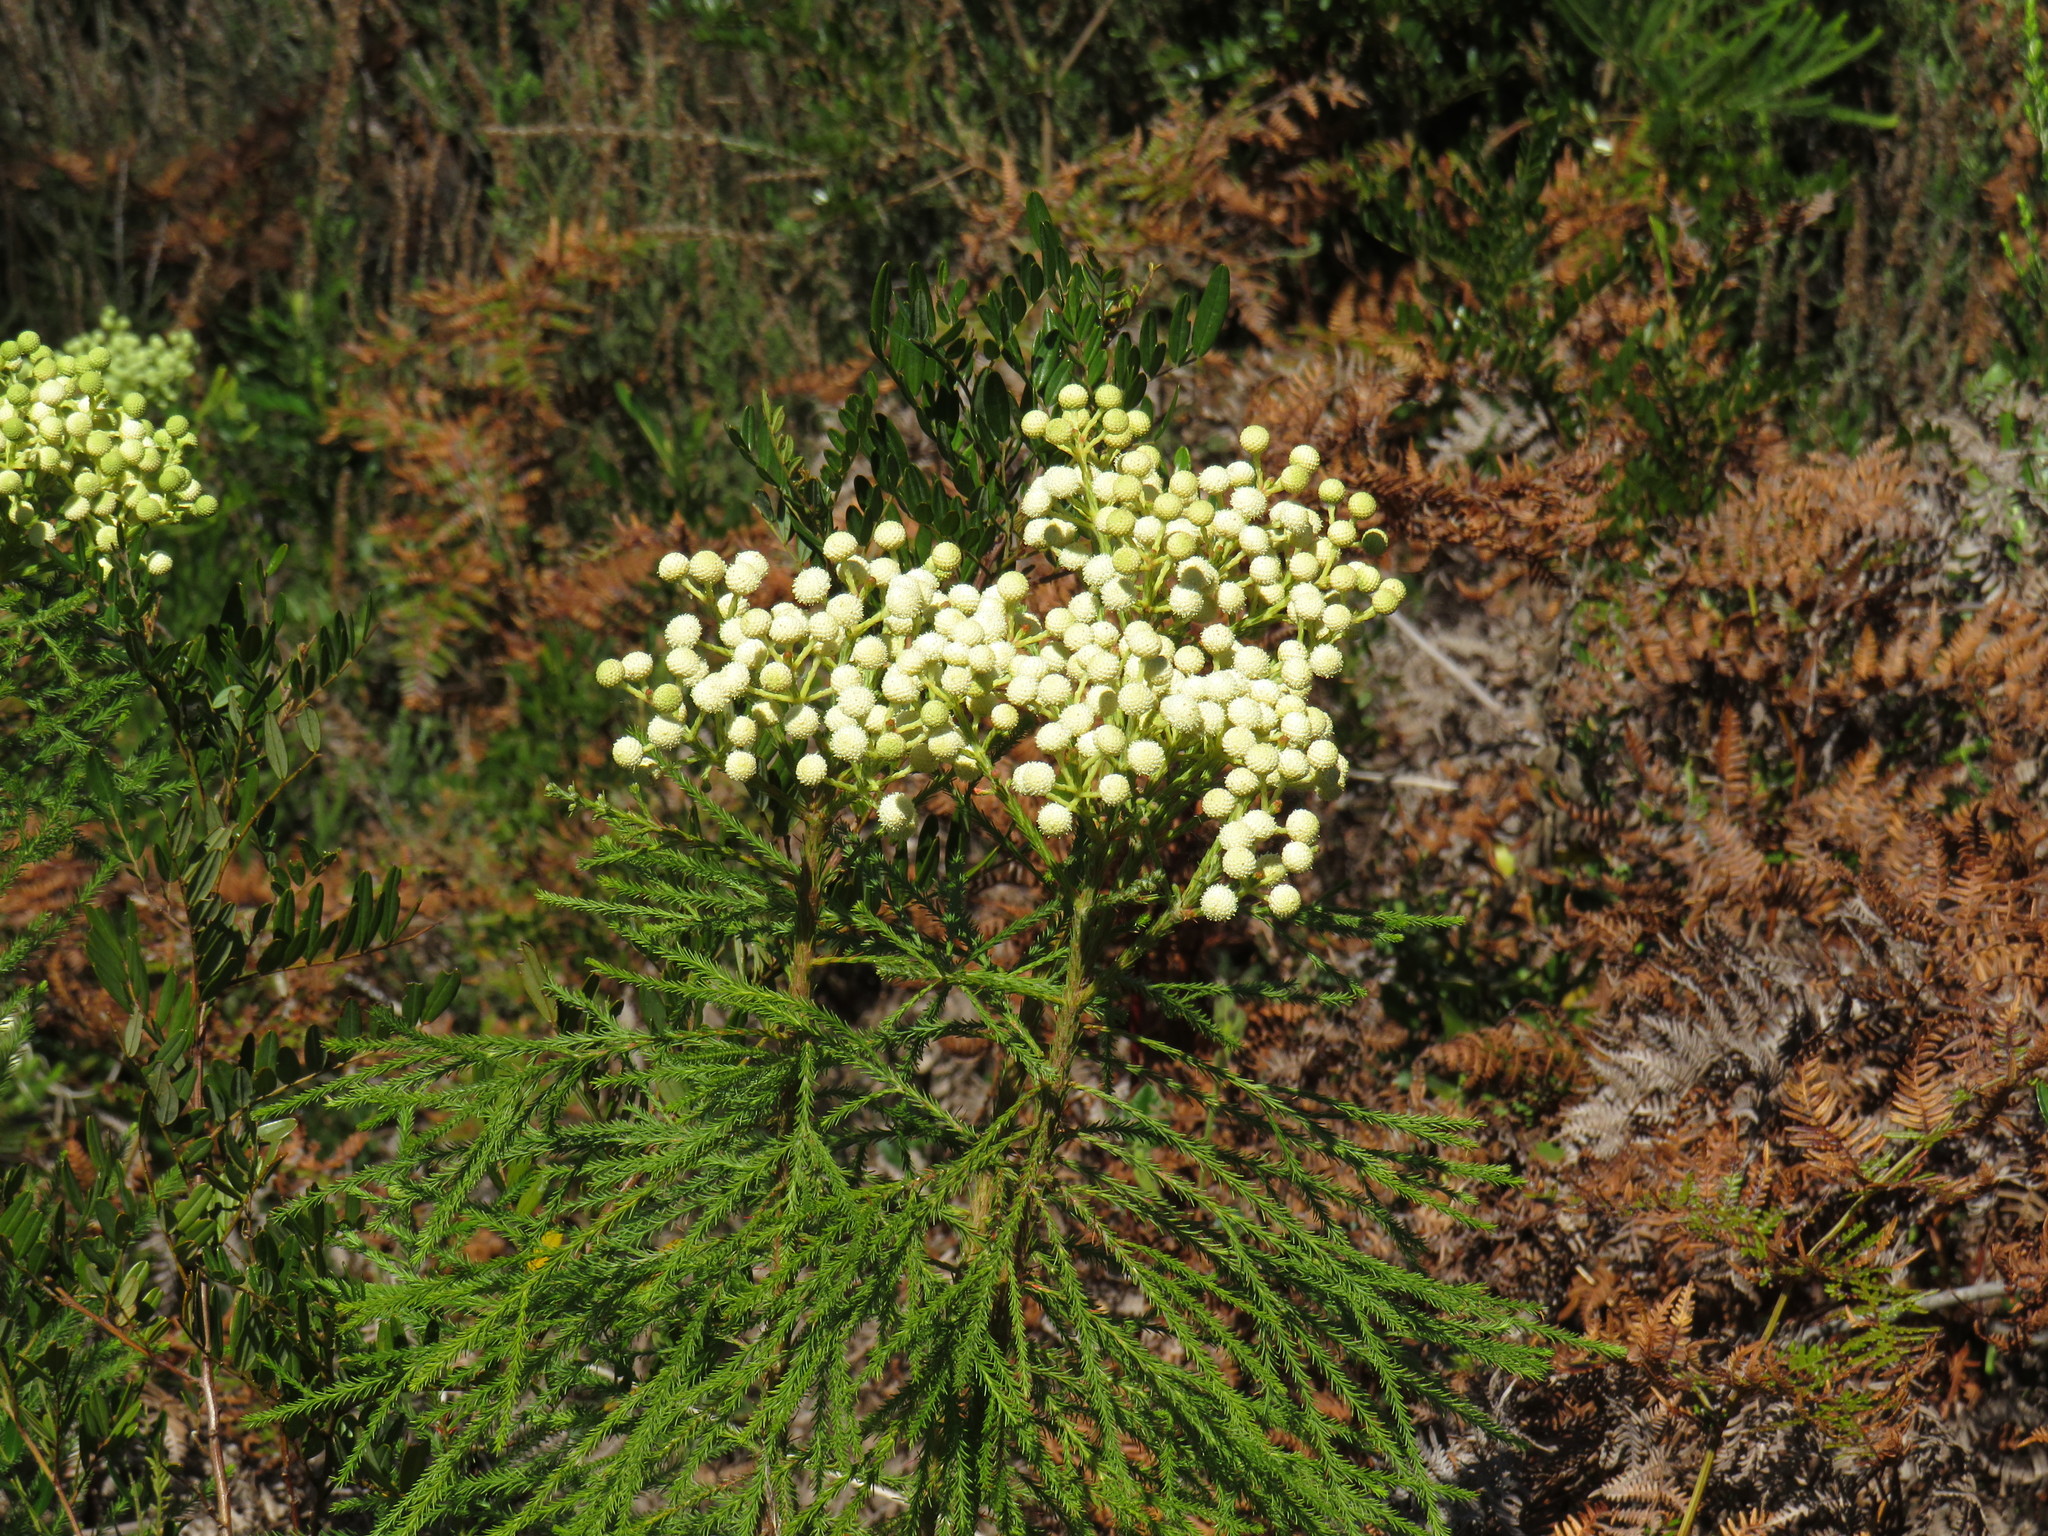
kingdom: Plantae
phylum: Tracheophyta
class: Magnoliopsida
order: Bruniales
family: Bruniaceae
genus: Berzelia
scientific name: Berzelia lanuginosa
